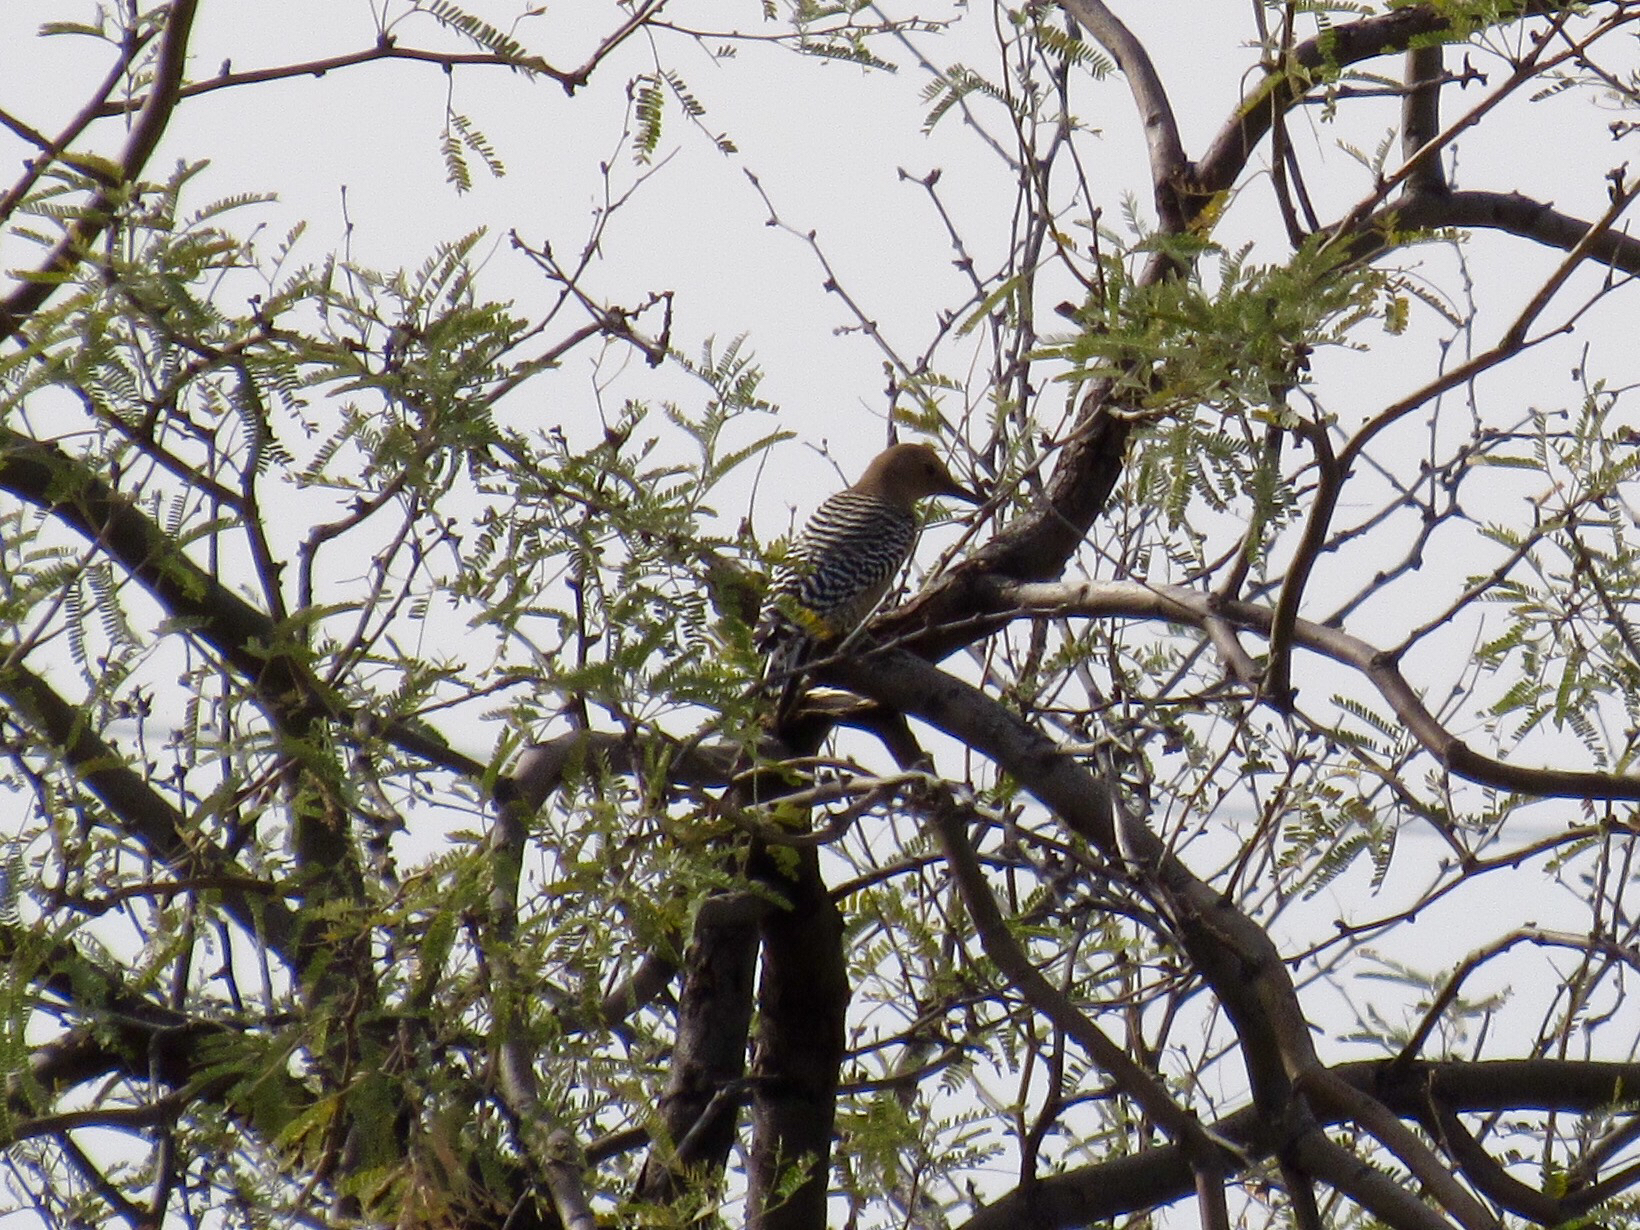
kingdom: Animalia
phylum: Chordata
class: Aves
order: Piciformes
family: Picidae
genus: Melanerpes
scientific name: Melanerpes uropygialis
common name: Gila woodpecker
